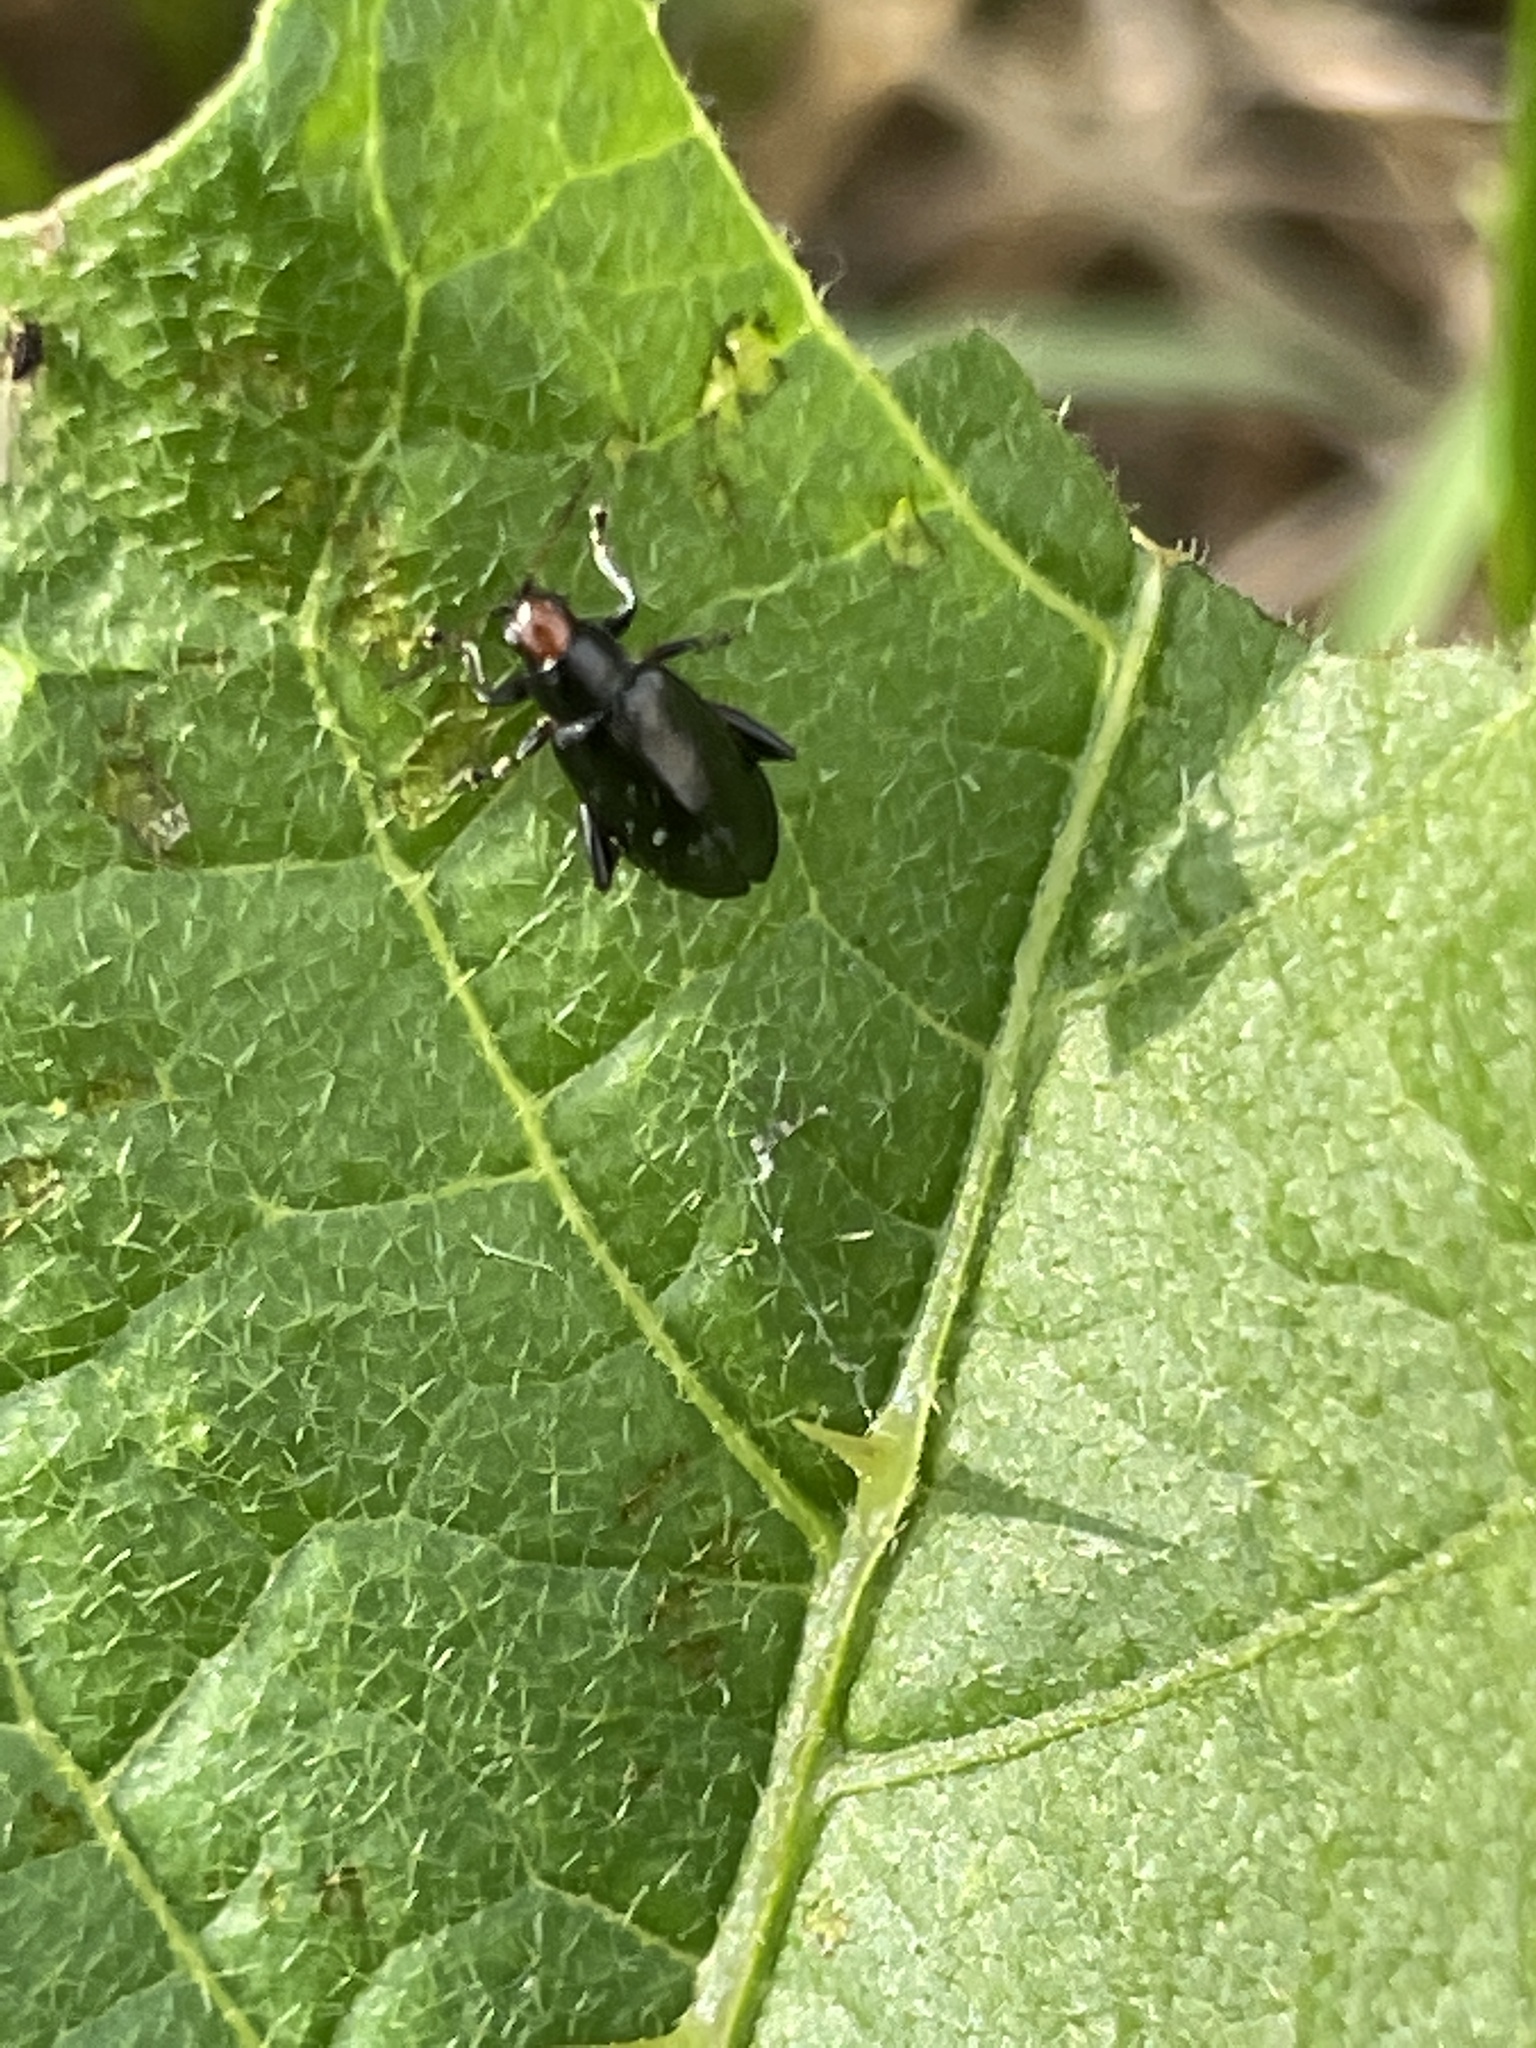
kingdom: Animalia
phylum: Arthropoda
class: Insecta
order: Coleoptera
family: Chrysomelidae
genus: Systena
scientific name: Systena frontalis
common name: Red-headed flea beetle
